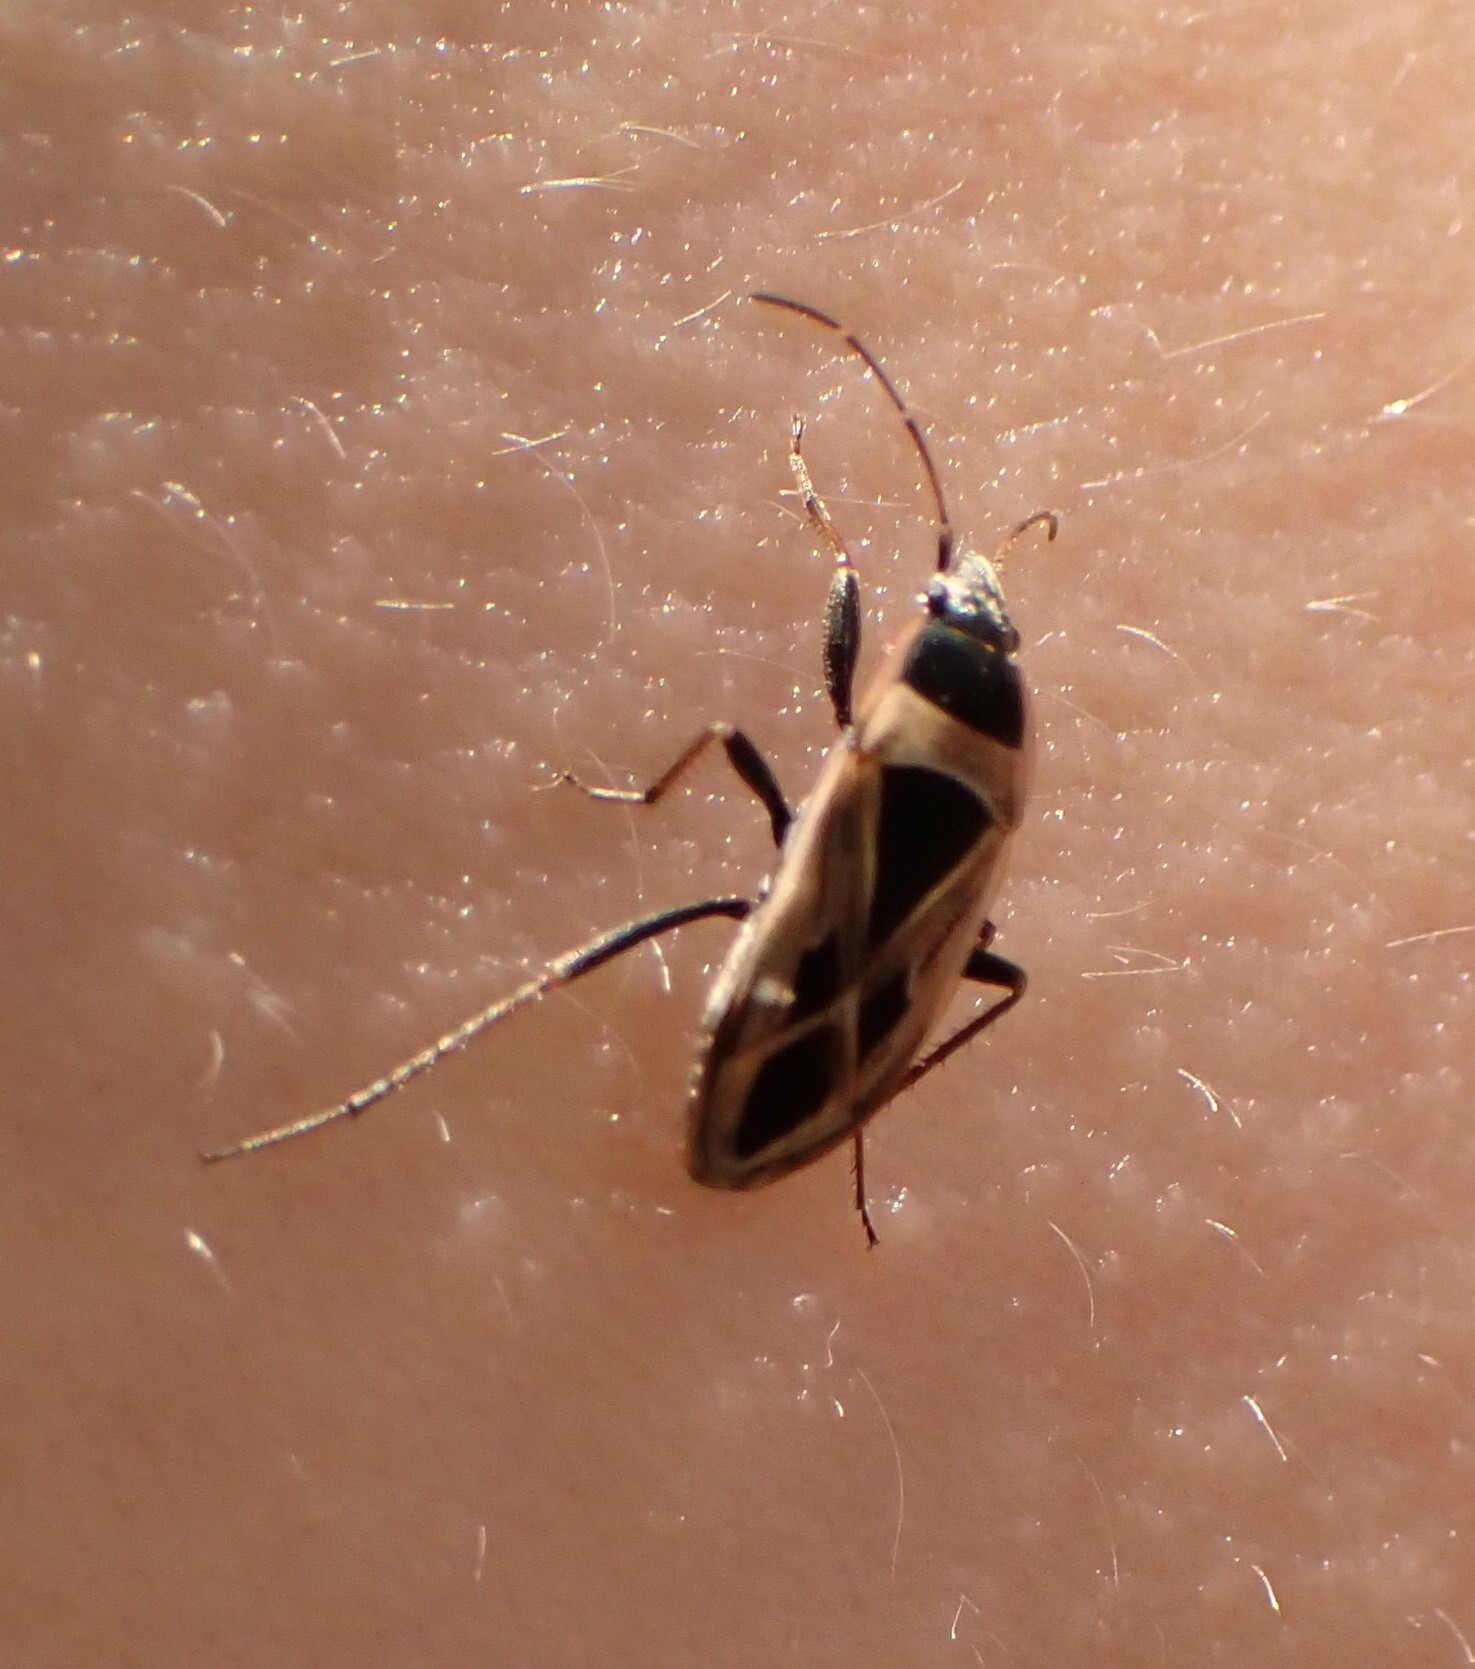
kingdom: Animalia
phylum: Arthropoda
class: Insecta
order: Hemiptera
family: Rhyparochromidae
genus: Xanthochilus
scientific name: Xanthochilus saturnius
